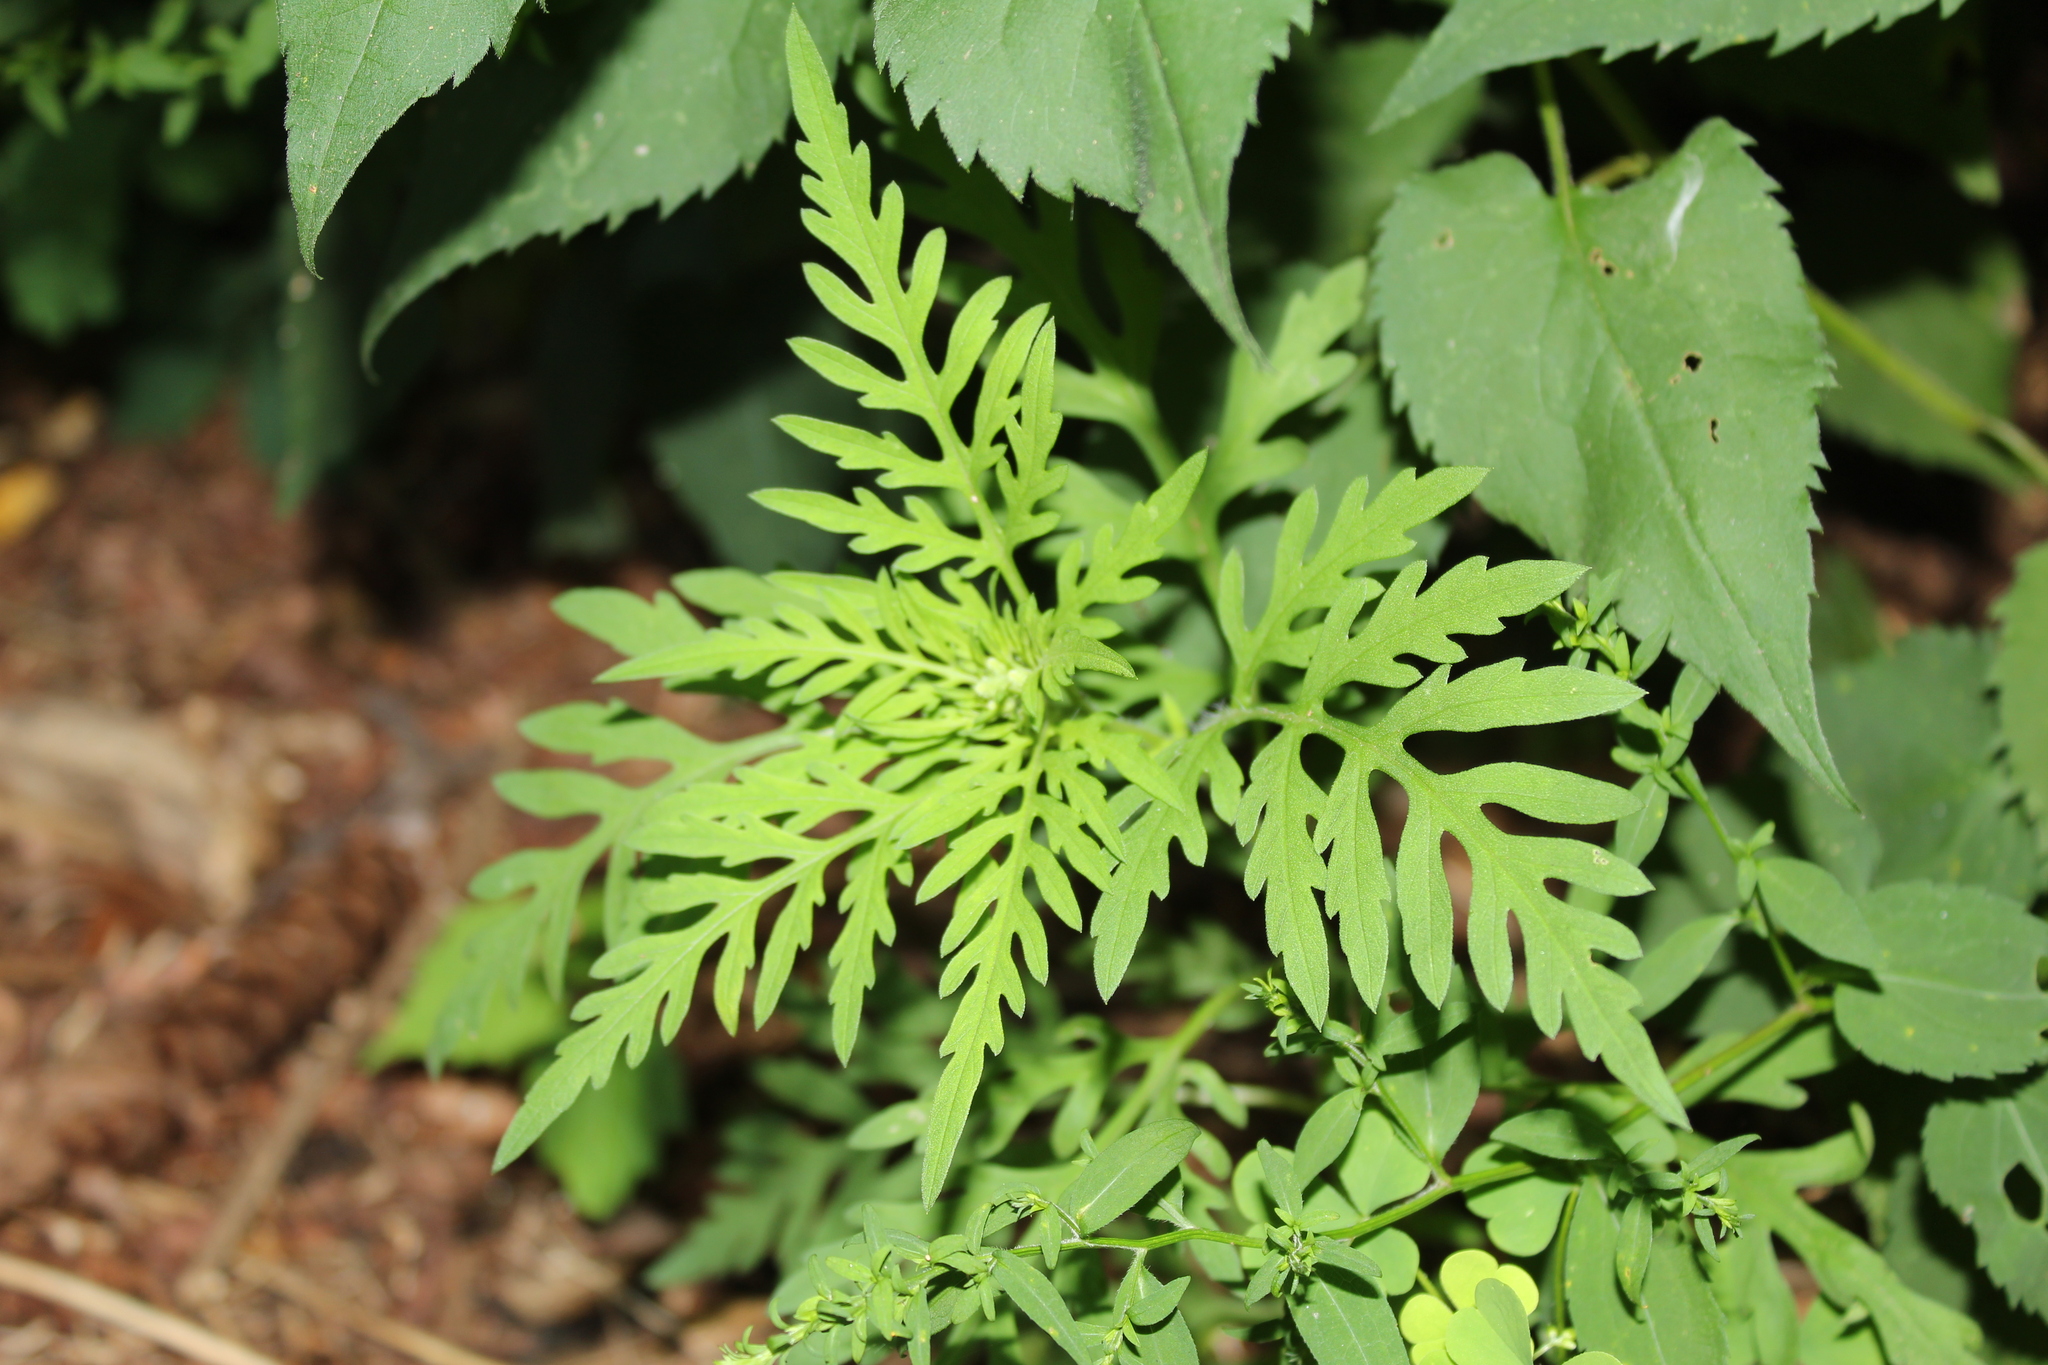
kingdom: Plantae
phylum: Tracheophyta
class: Magnoliopsida
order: Asterales
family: Asteraceae
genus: Ambrosia
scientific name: Ambrosia artemisiifolia
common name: Annual ragweed
